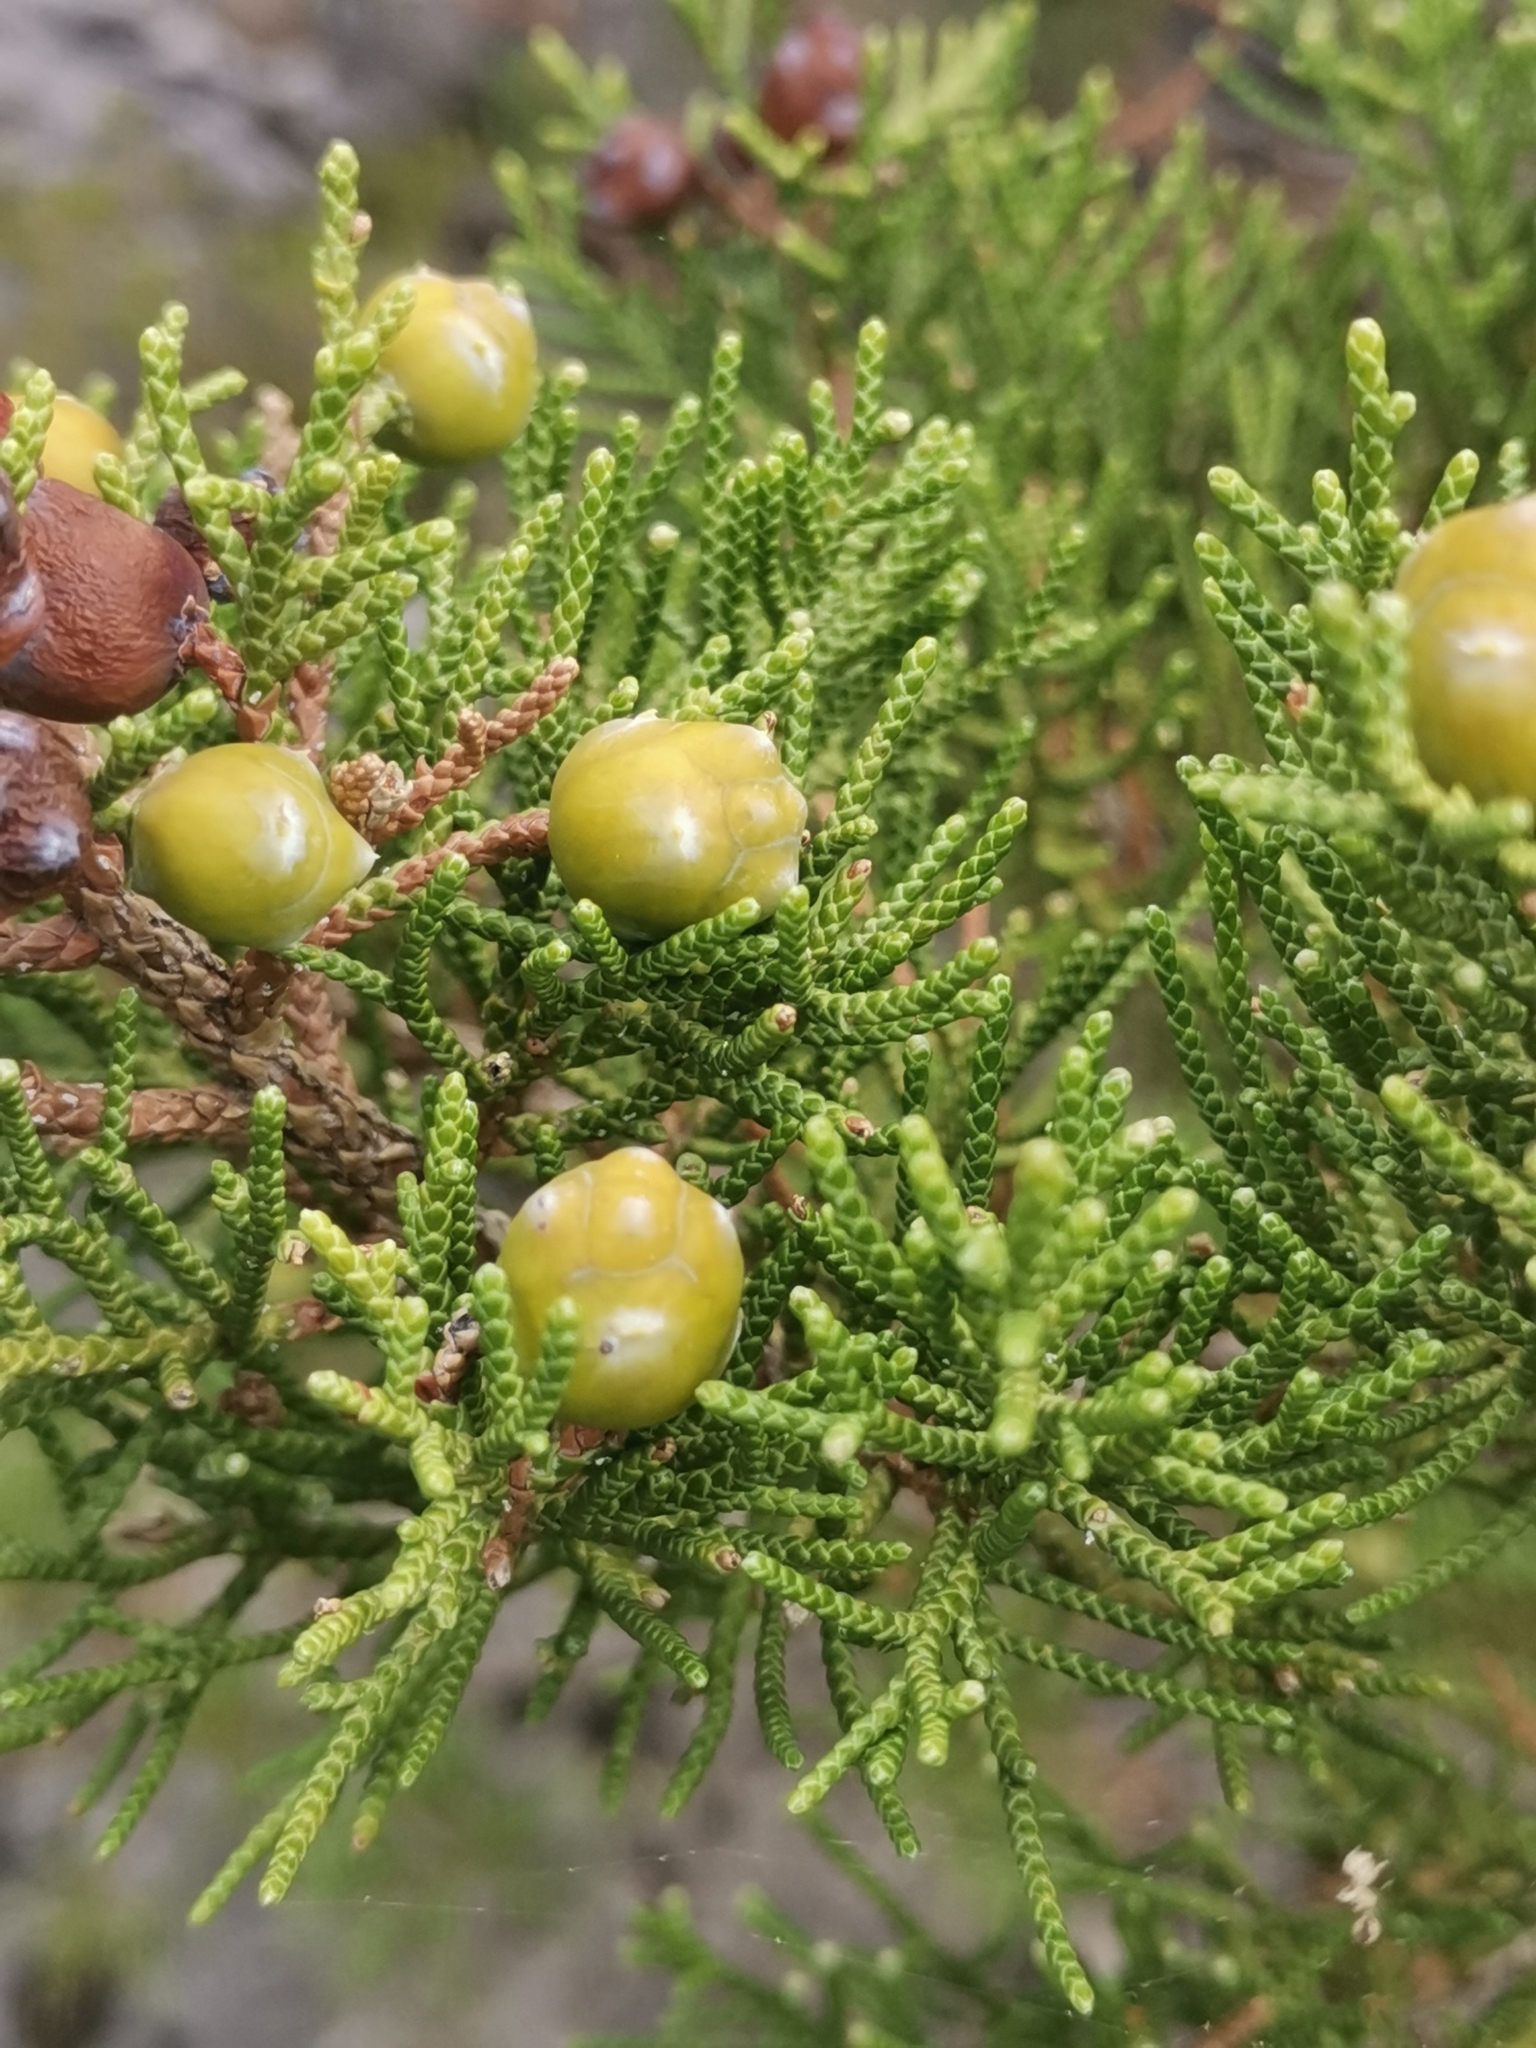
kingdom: Plantae
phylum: Tracheophyta
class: Pinopsida
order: Pinales
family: Cupressaceae
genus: Juniperus
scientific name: Juniperus phoenicea
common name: Phoenician juniper
